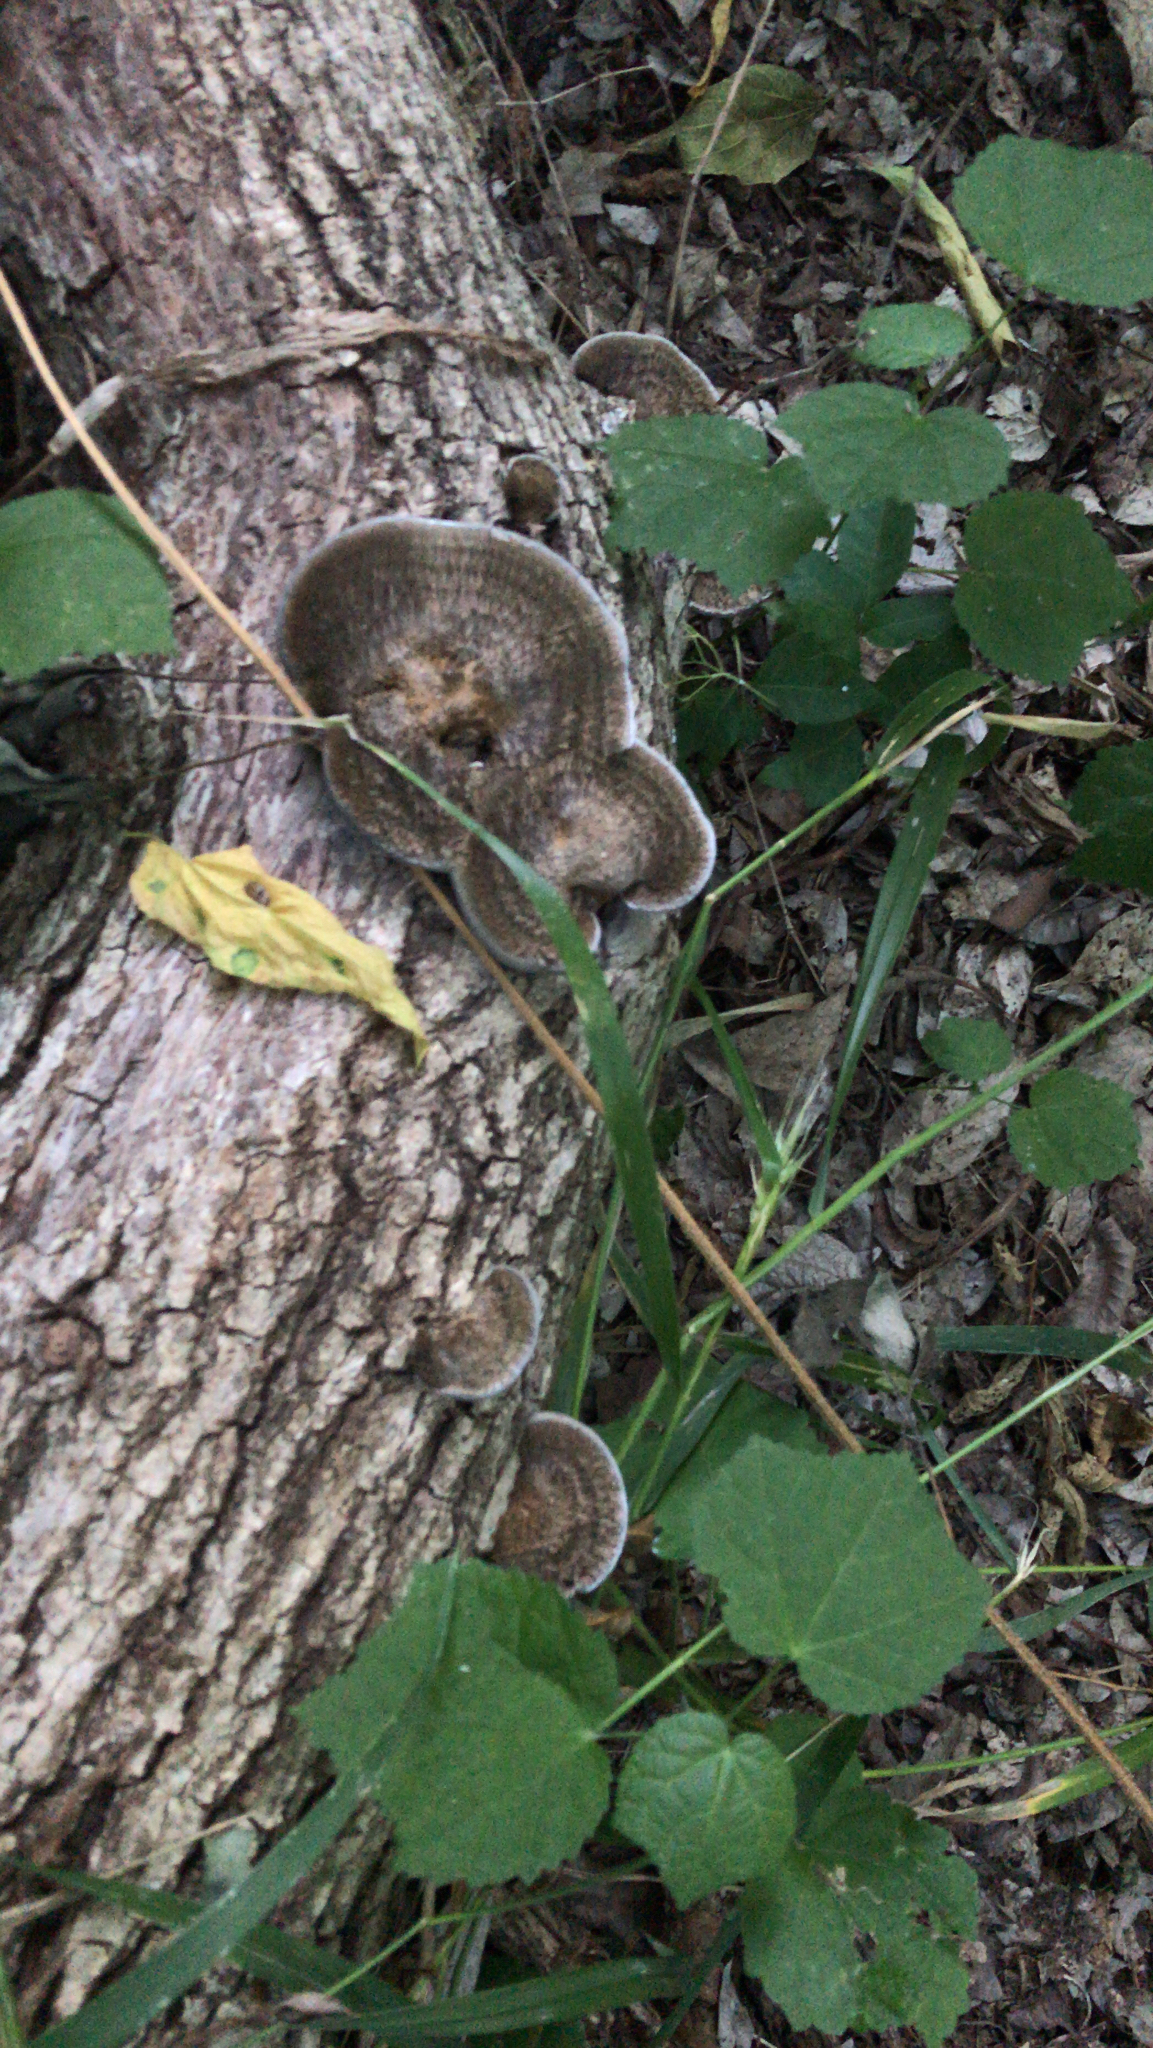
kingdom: Fungi
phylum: Basidiomycota
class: Agaricomycetes
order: Polyporales
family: Cerrenaceae
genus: Cerrena
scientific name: Cerrena hydnoides
